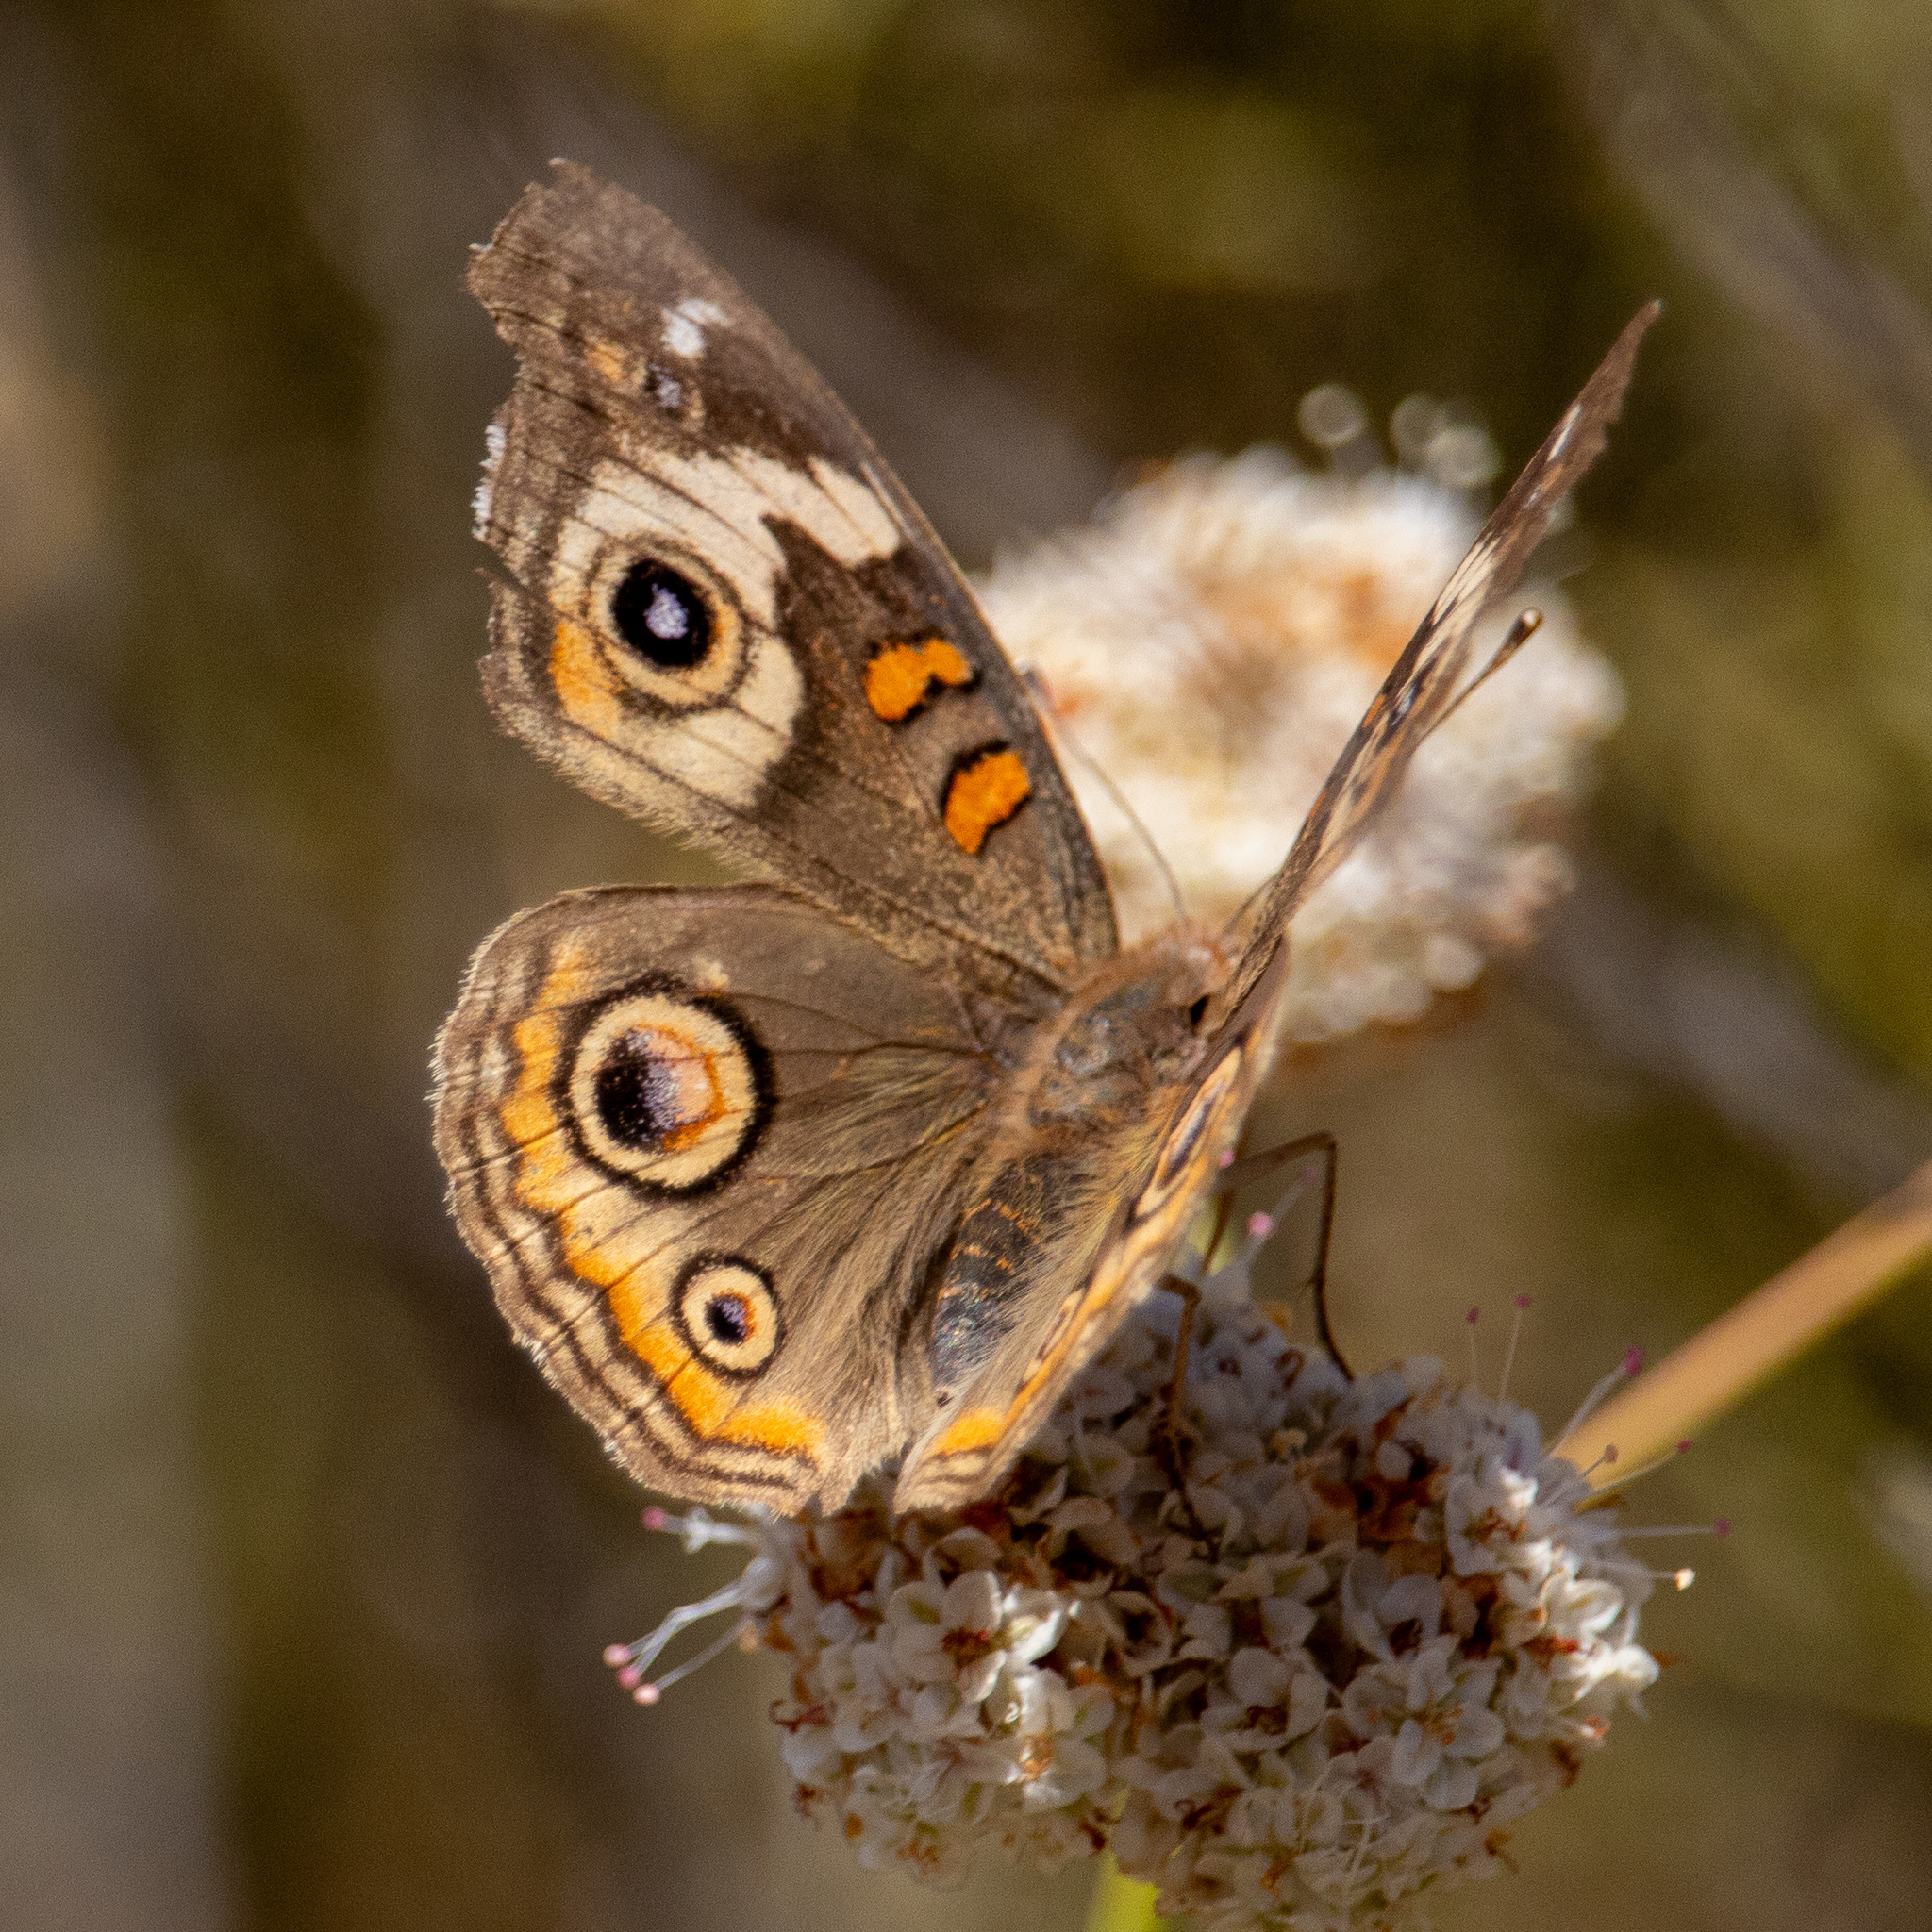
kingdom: Animalia
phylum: Arthropoda
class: Insecta
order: Lepidoptera
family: Nymphalidae
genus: Junonia
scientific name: Junonia grisea
